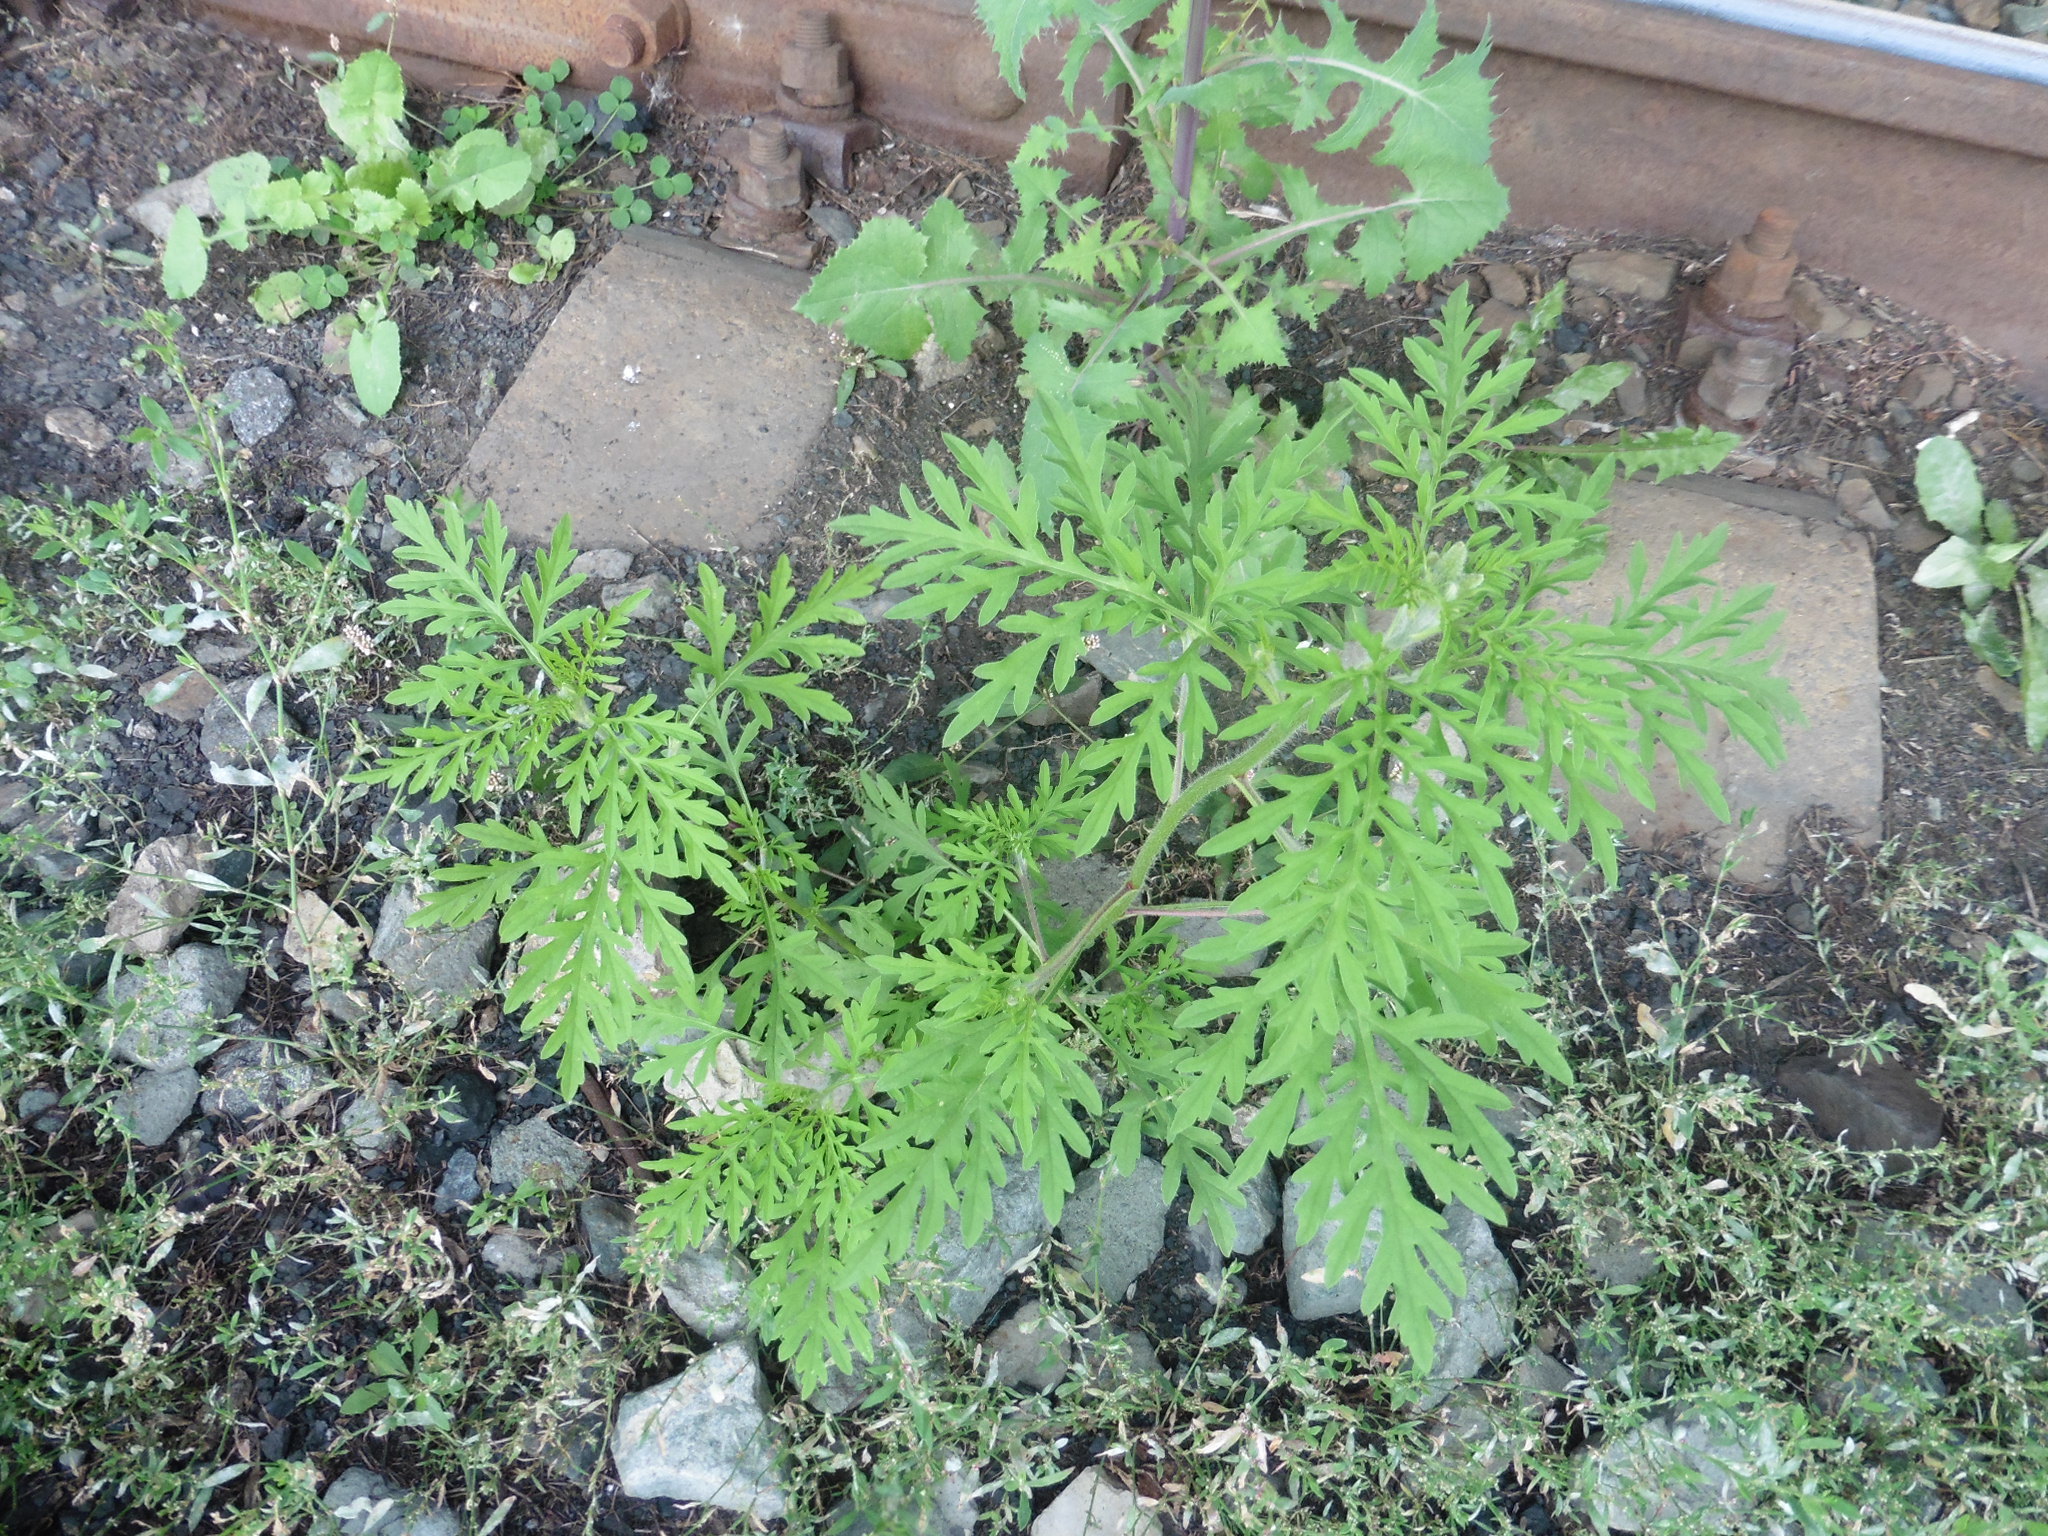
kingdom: Plantae
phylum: Tracheophyta
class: Magnoliopsida
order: Asterales
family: Asteraceae
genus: Ambrosia
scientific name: Ambrosia artemisiifolia
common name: Annual ragweed
